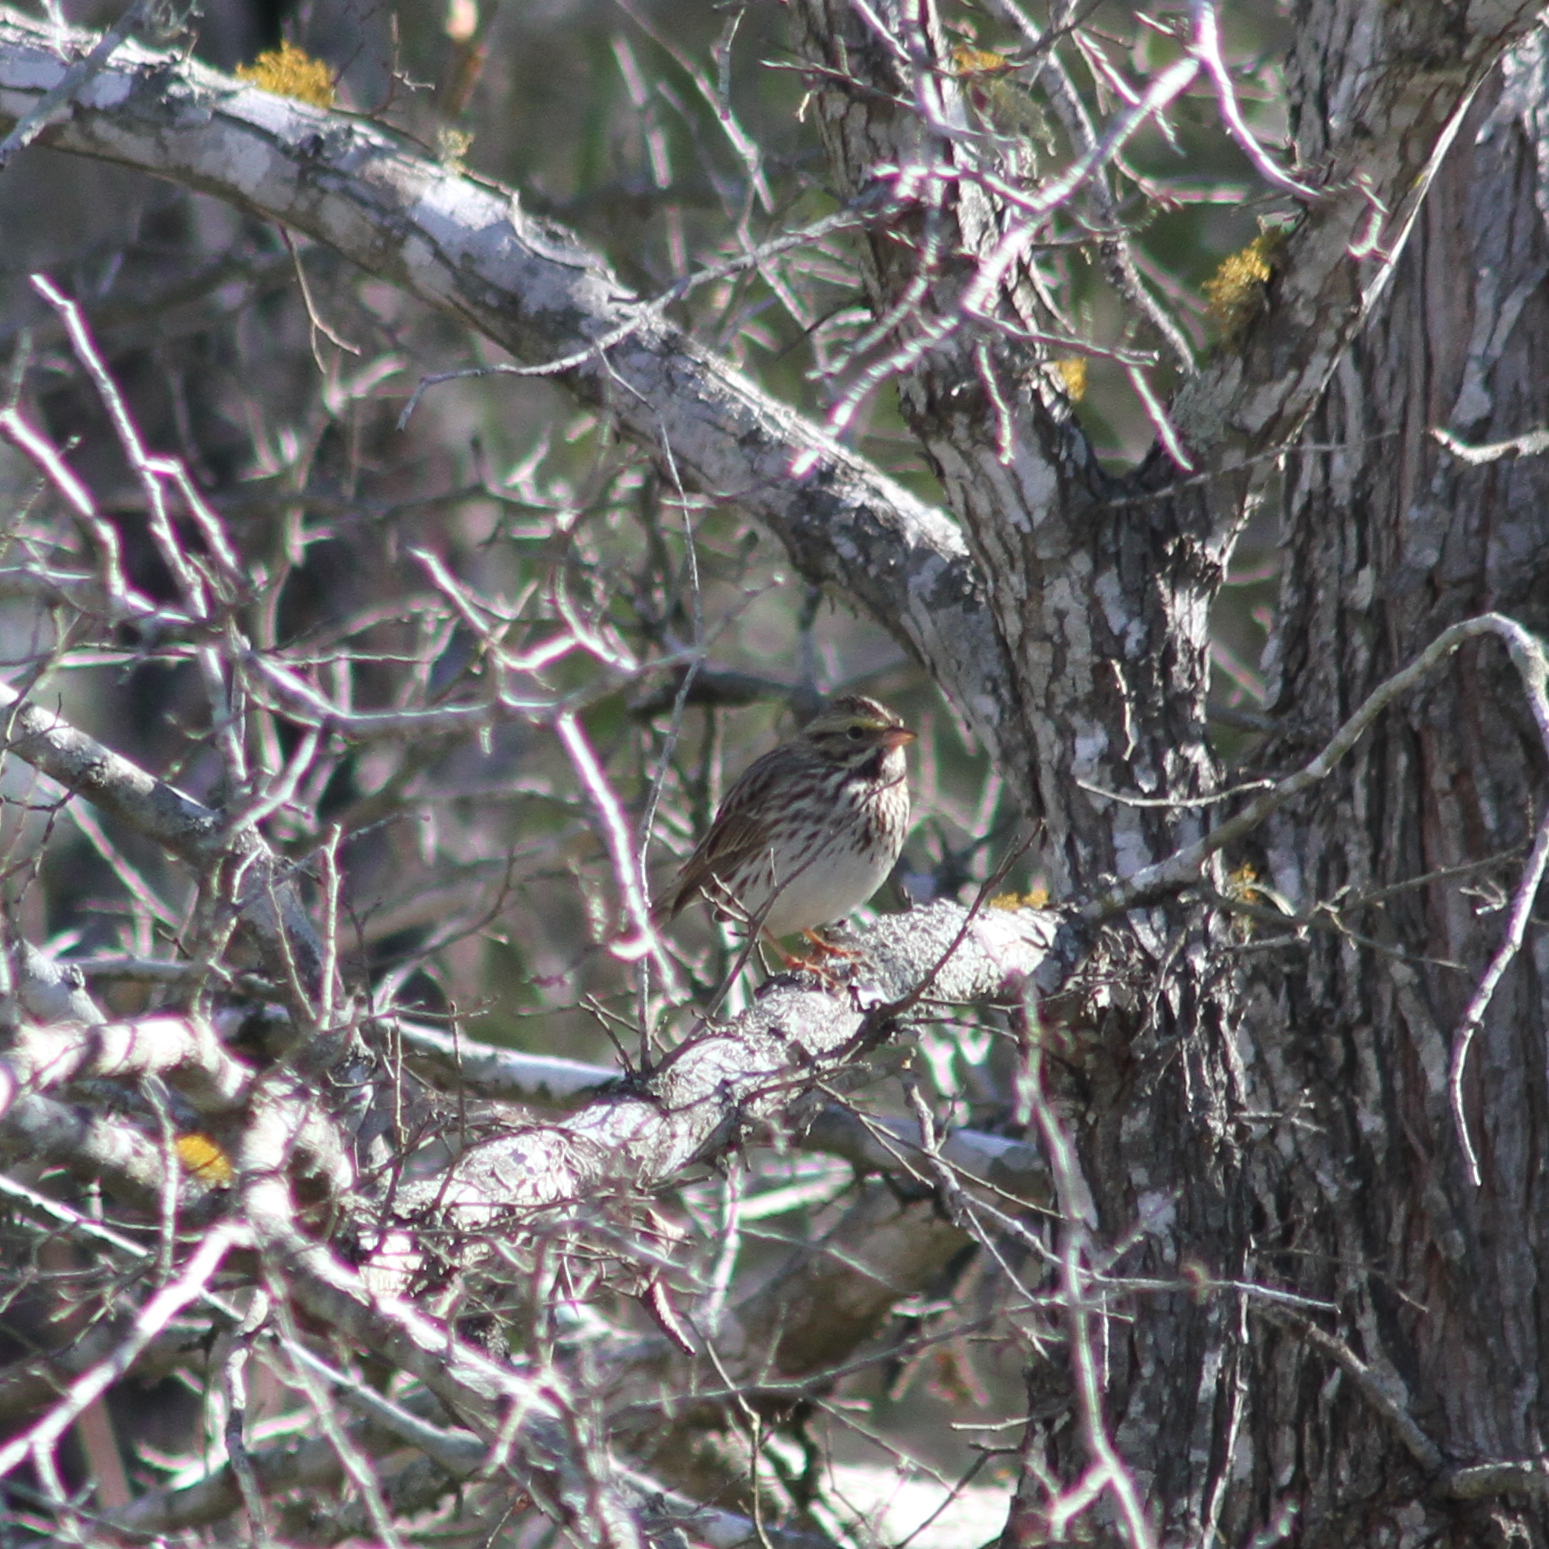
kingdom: Animalia
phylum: Chordata
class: Aves
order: Passeriformes
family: Passerellidae
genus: Passerculus
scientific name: Passerculus sandwichensis
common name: Savannah sparrow
